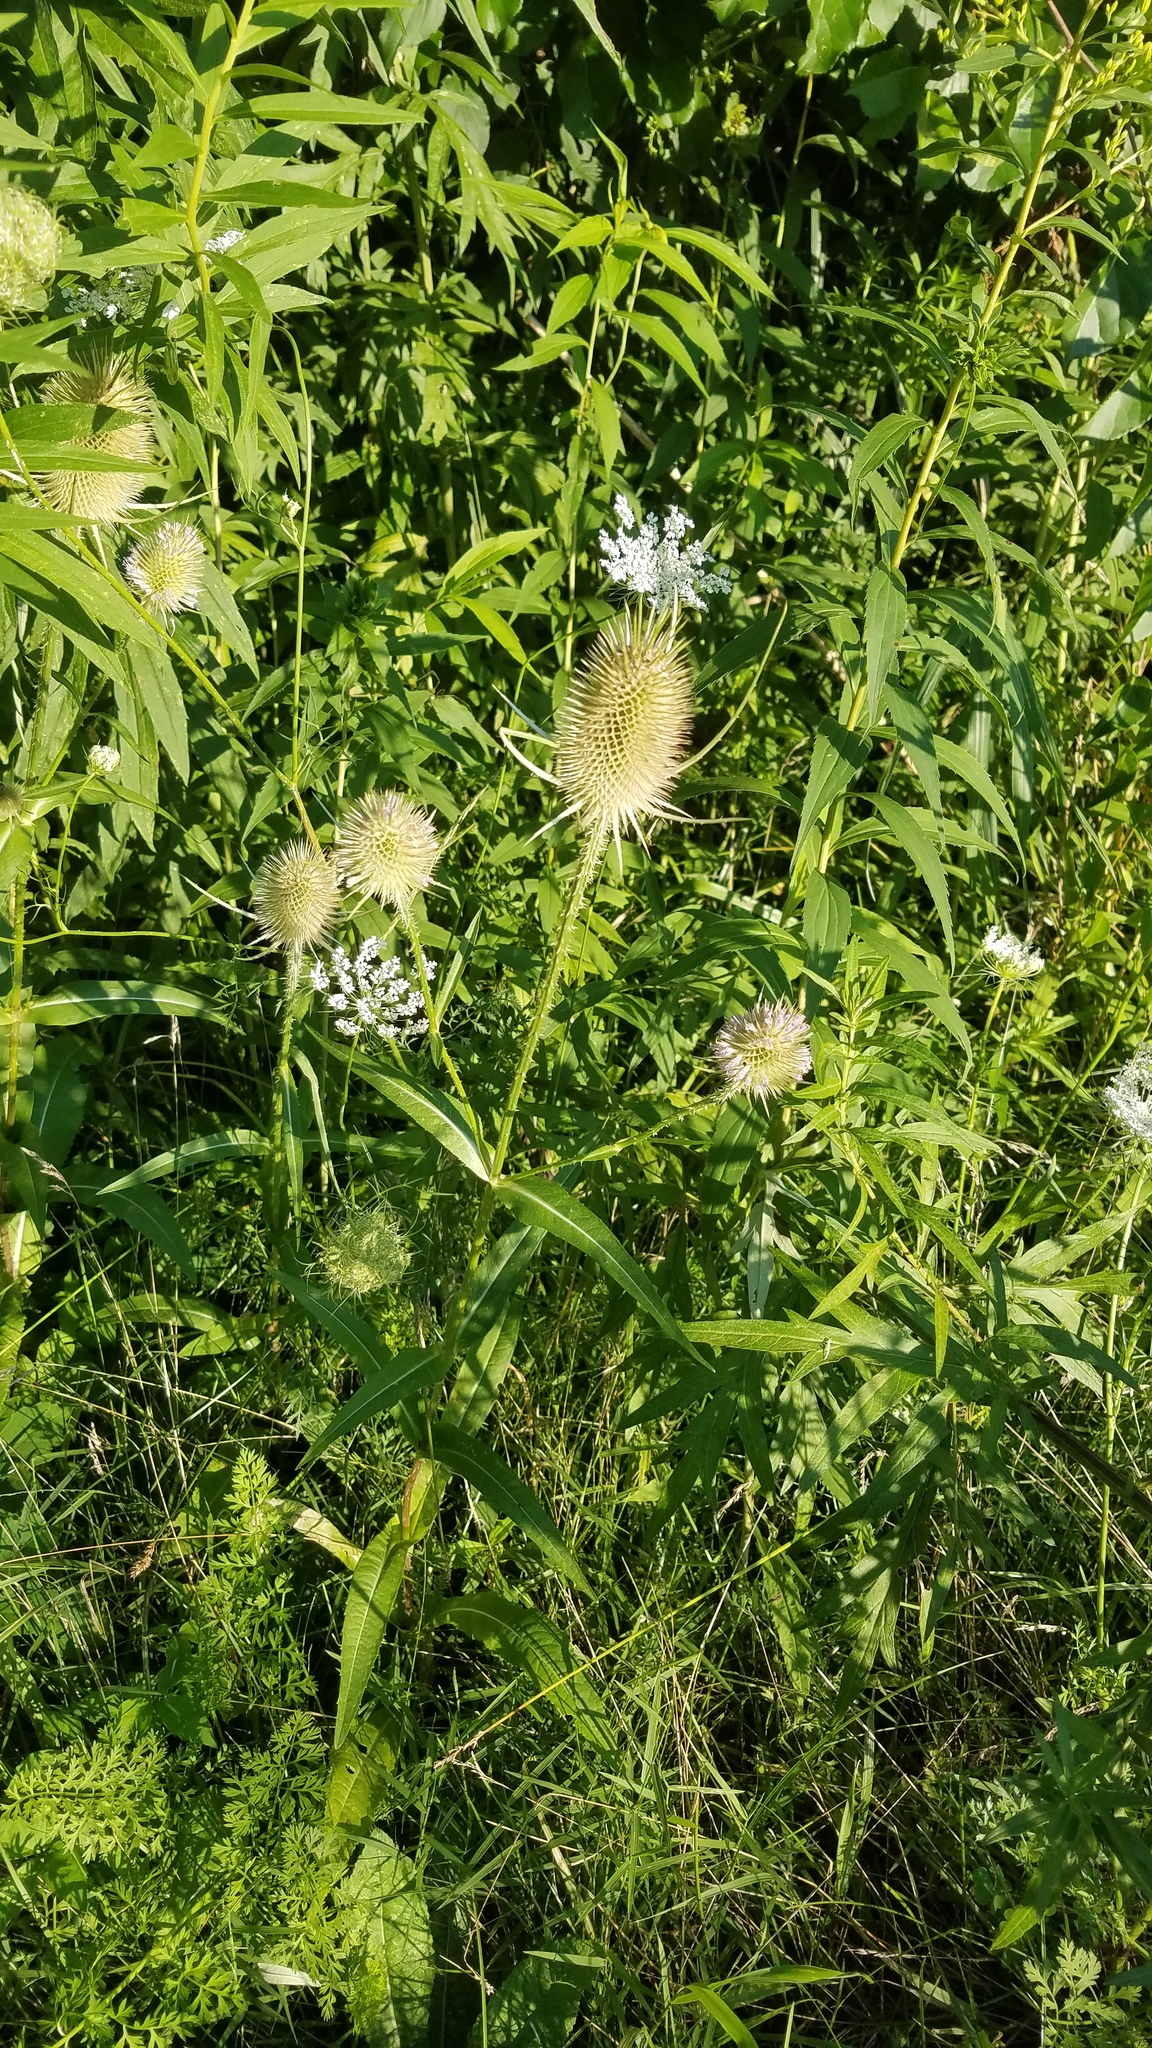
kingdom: Plantae
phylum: Tracheophyta
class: Magnoliopsida
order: Dipsacales
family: Caprifoliaceae
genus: Dipsacus
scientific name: Dipsacus fullonum
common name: Teasel
